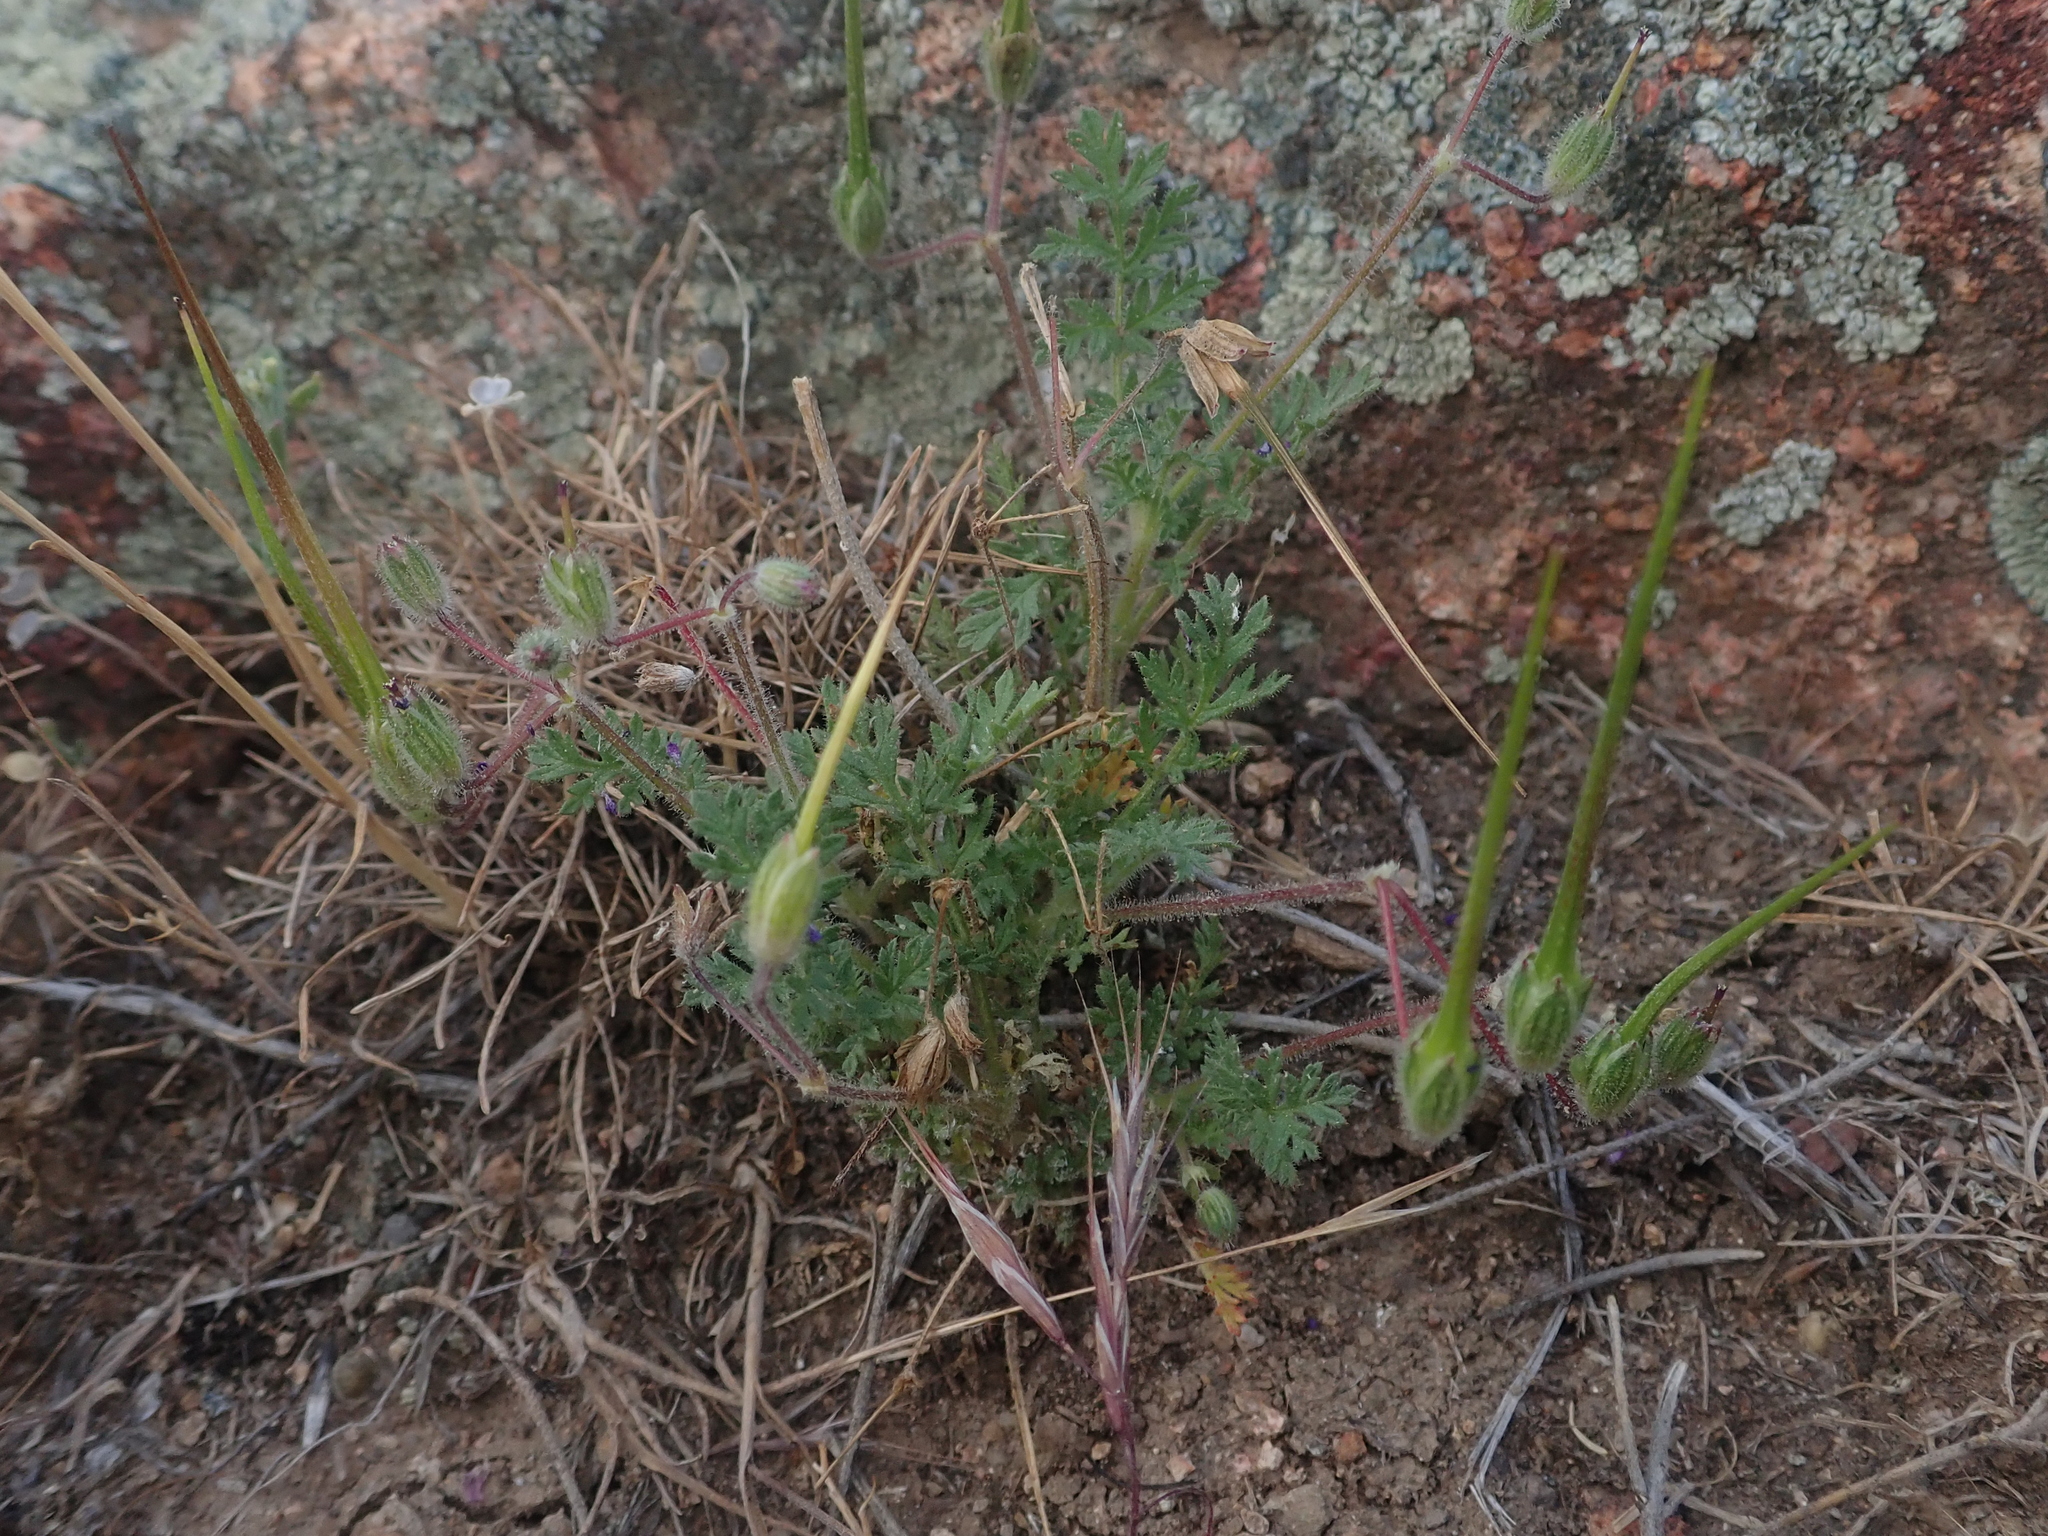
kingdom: Plantae
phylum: Tracheophyta
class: Magnoliopsida
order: Geraniales
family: Geraniaceae
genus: Erodium
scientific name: Erodium cicutarium
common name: Common stork's-bill
